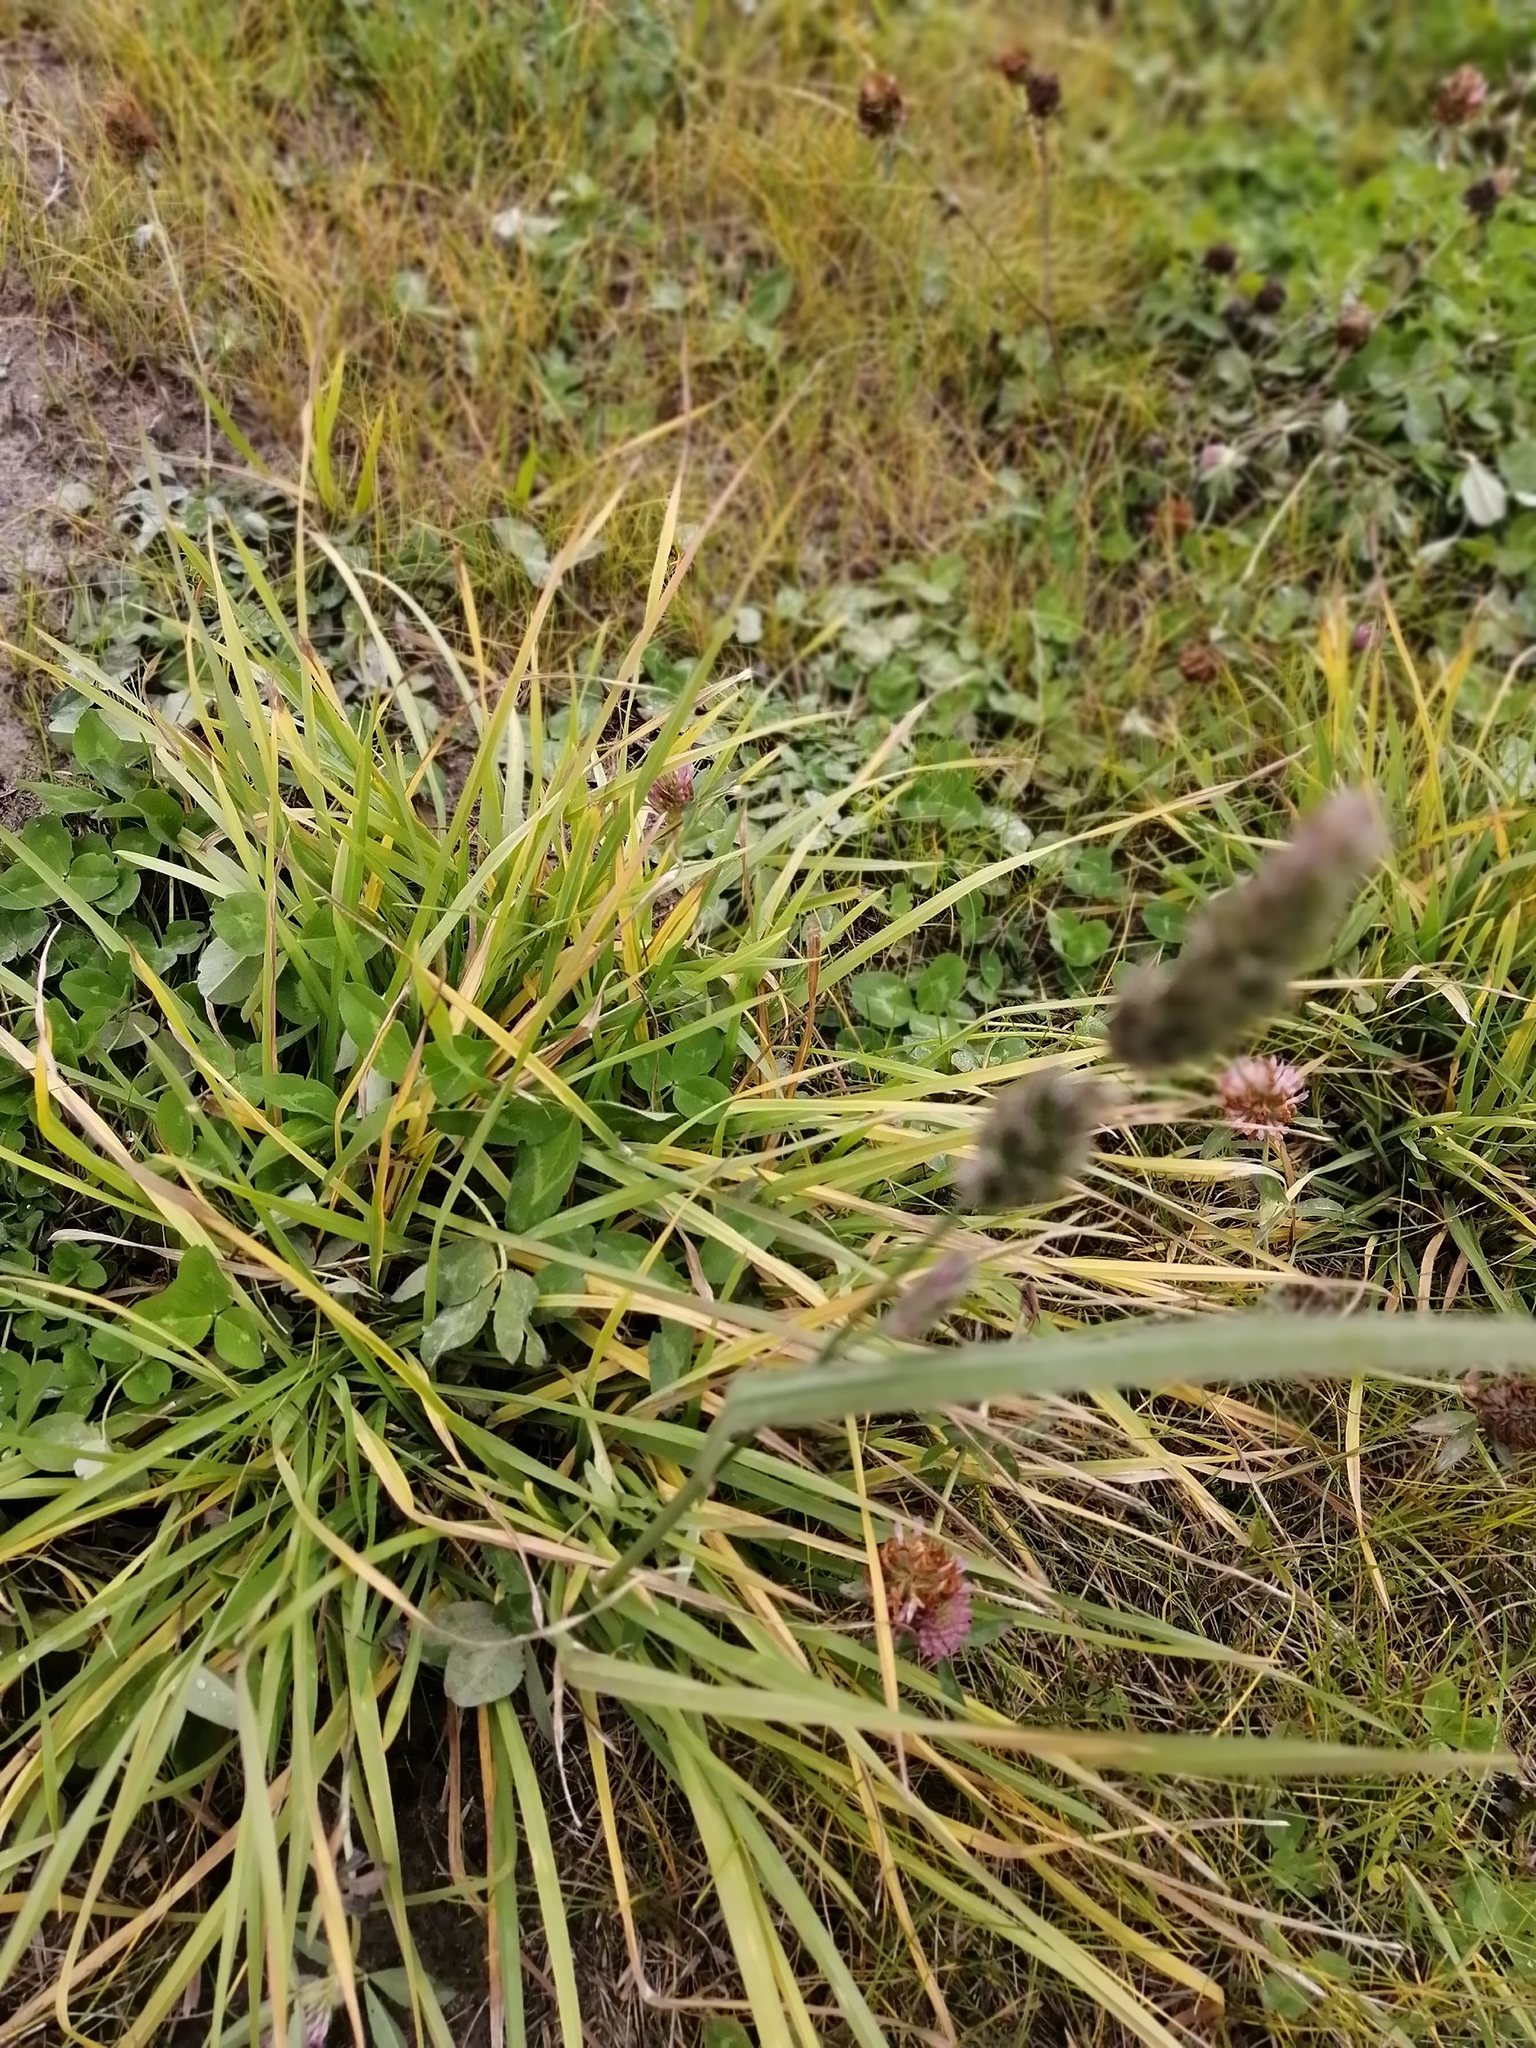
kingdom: Plantae
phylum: Tracheophyta
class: Liliopsida
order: Poales
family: Poaceae
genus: Dactylis
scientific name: Dactylis glomerata
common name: Orchardgrass
